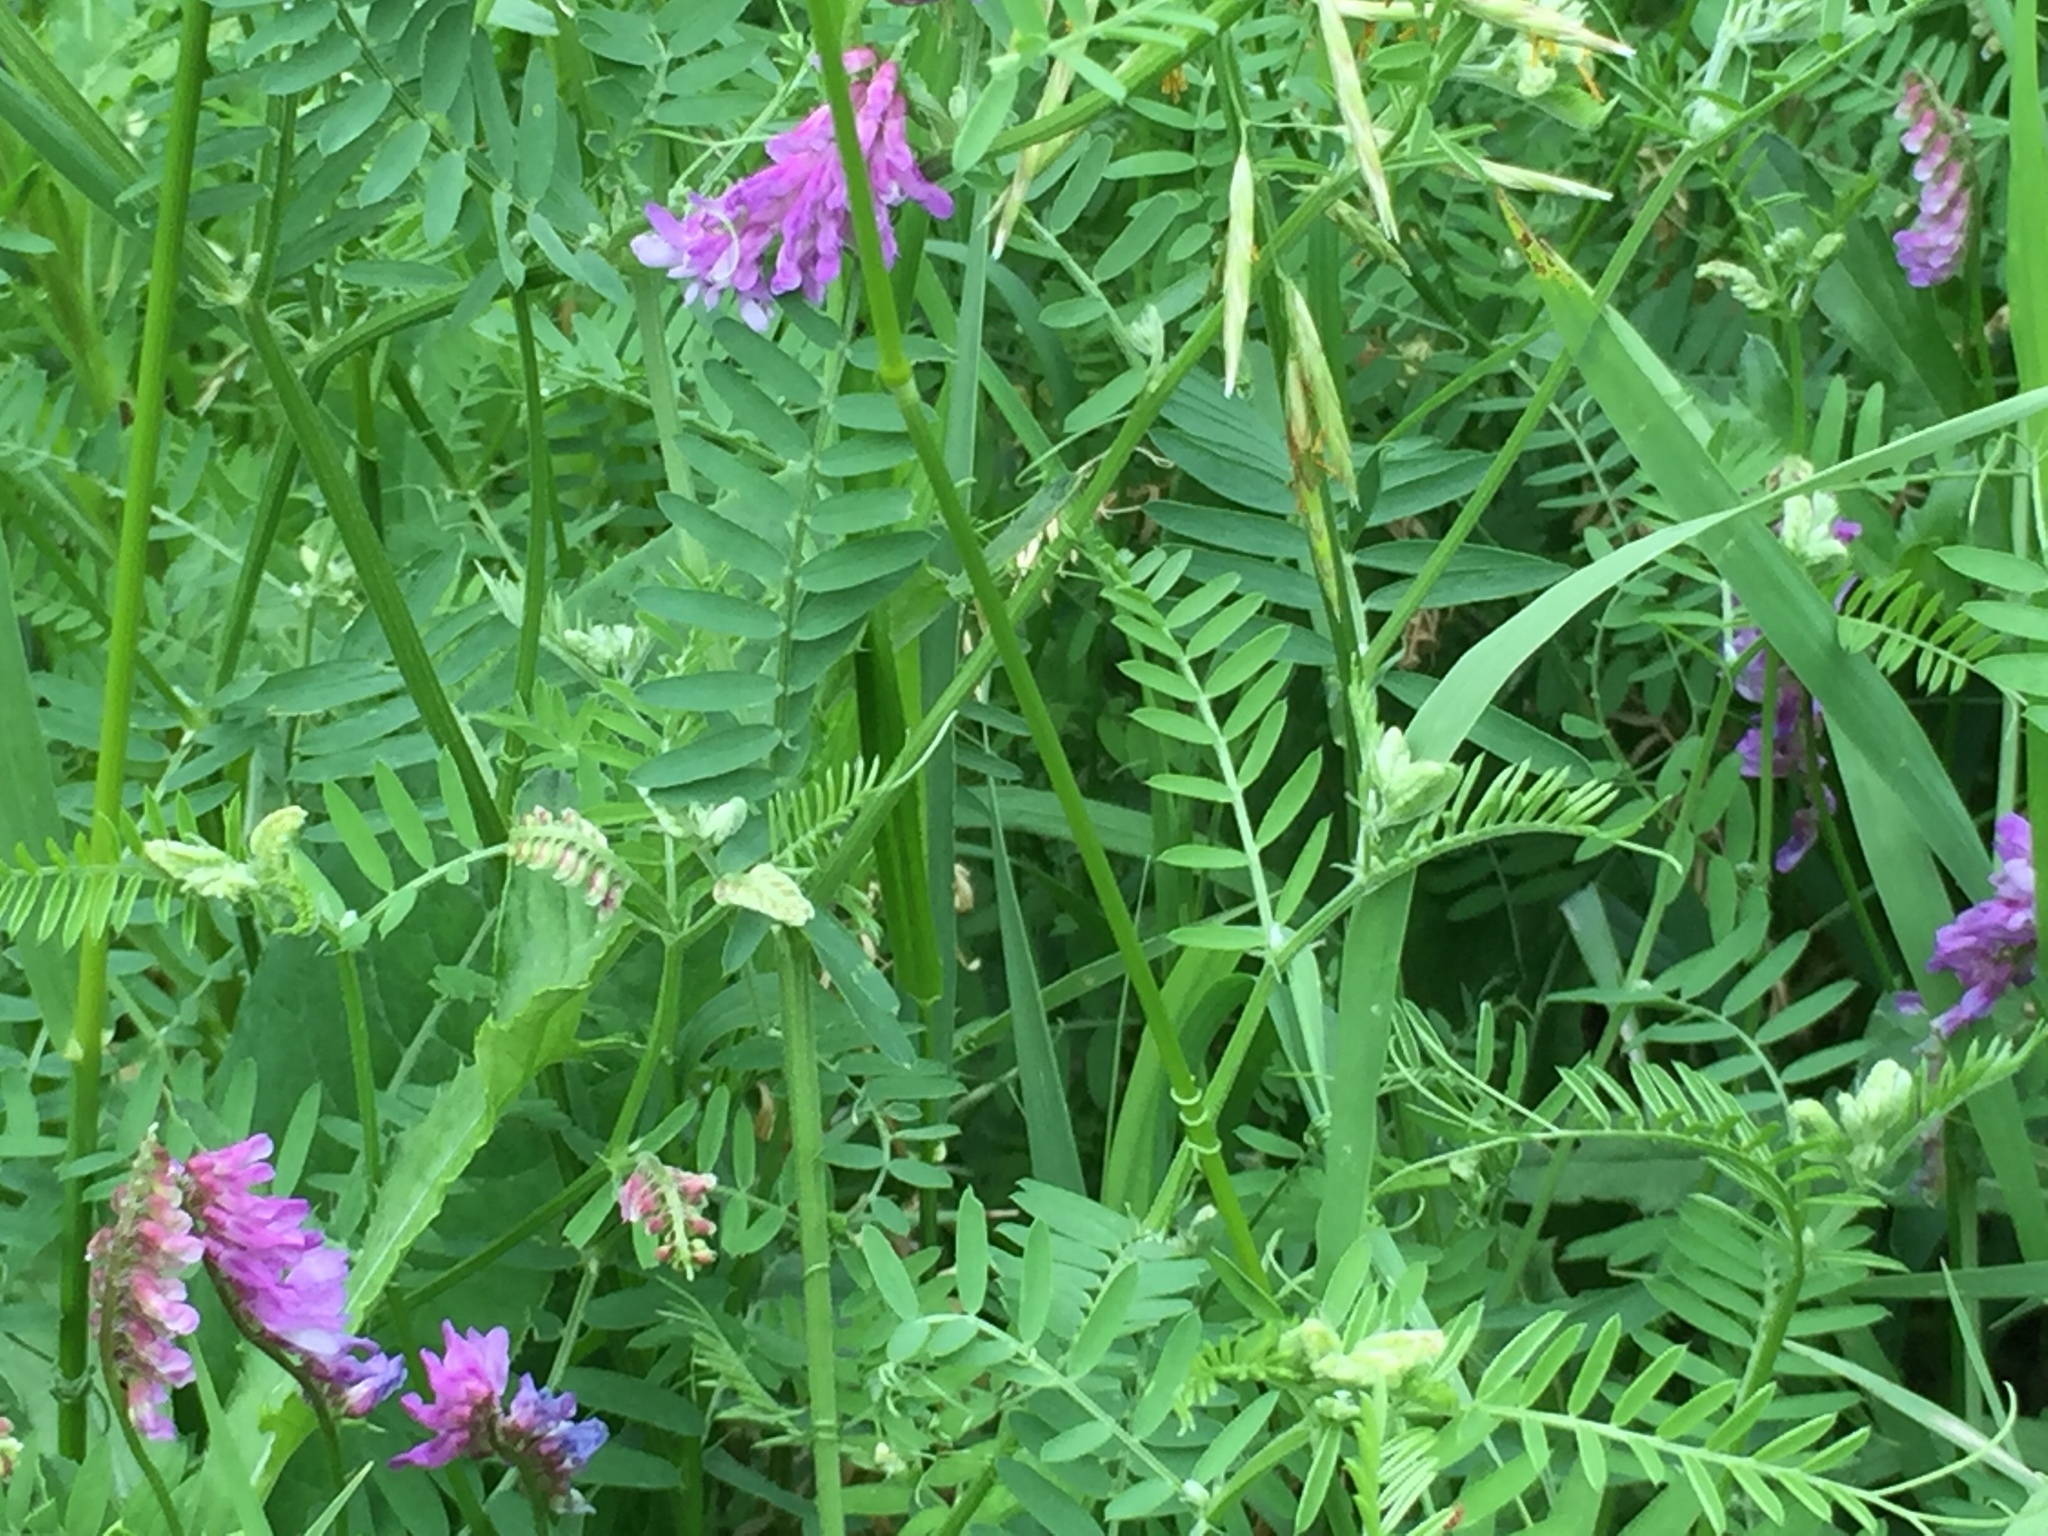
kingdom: Plantae
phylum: Tracheophyta
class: Magnoliopsida
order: Fabales
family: Fabaceae
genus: Vicia
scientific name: Vicia cracca
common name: Bird vetch
